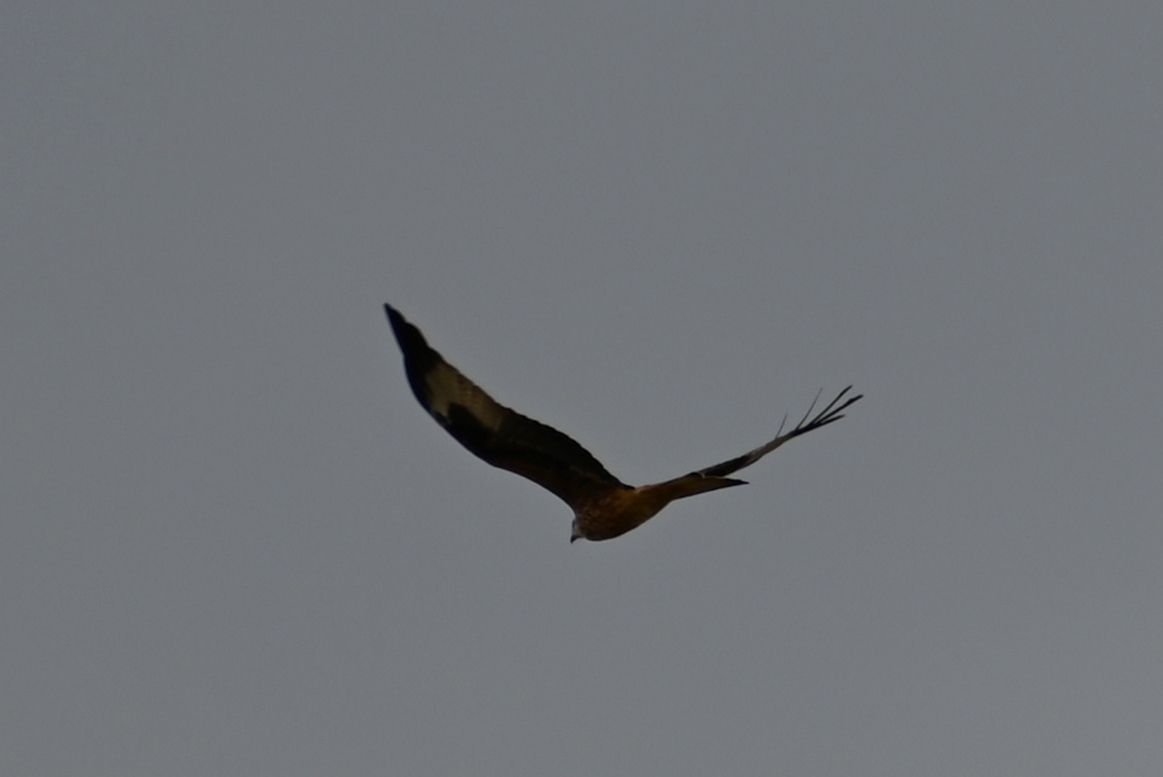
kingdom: Animalia
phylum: Chordata
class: Aves
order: Accipitriformes
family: Accipitridae
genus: Milvus
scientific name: Milvus milvus
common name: Red kite
